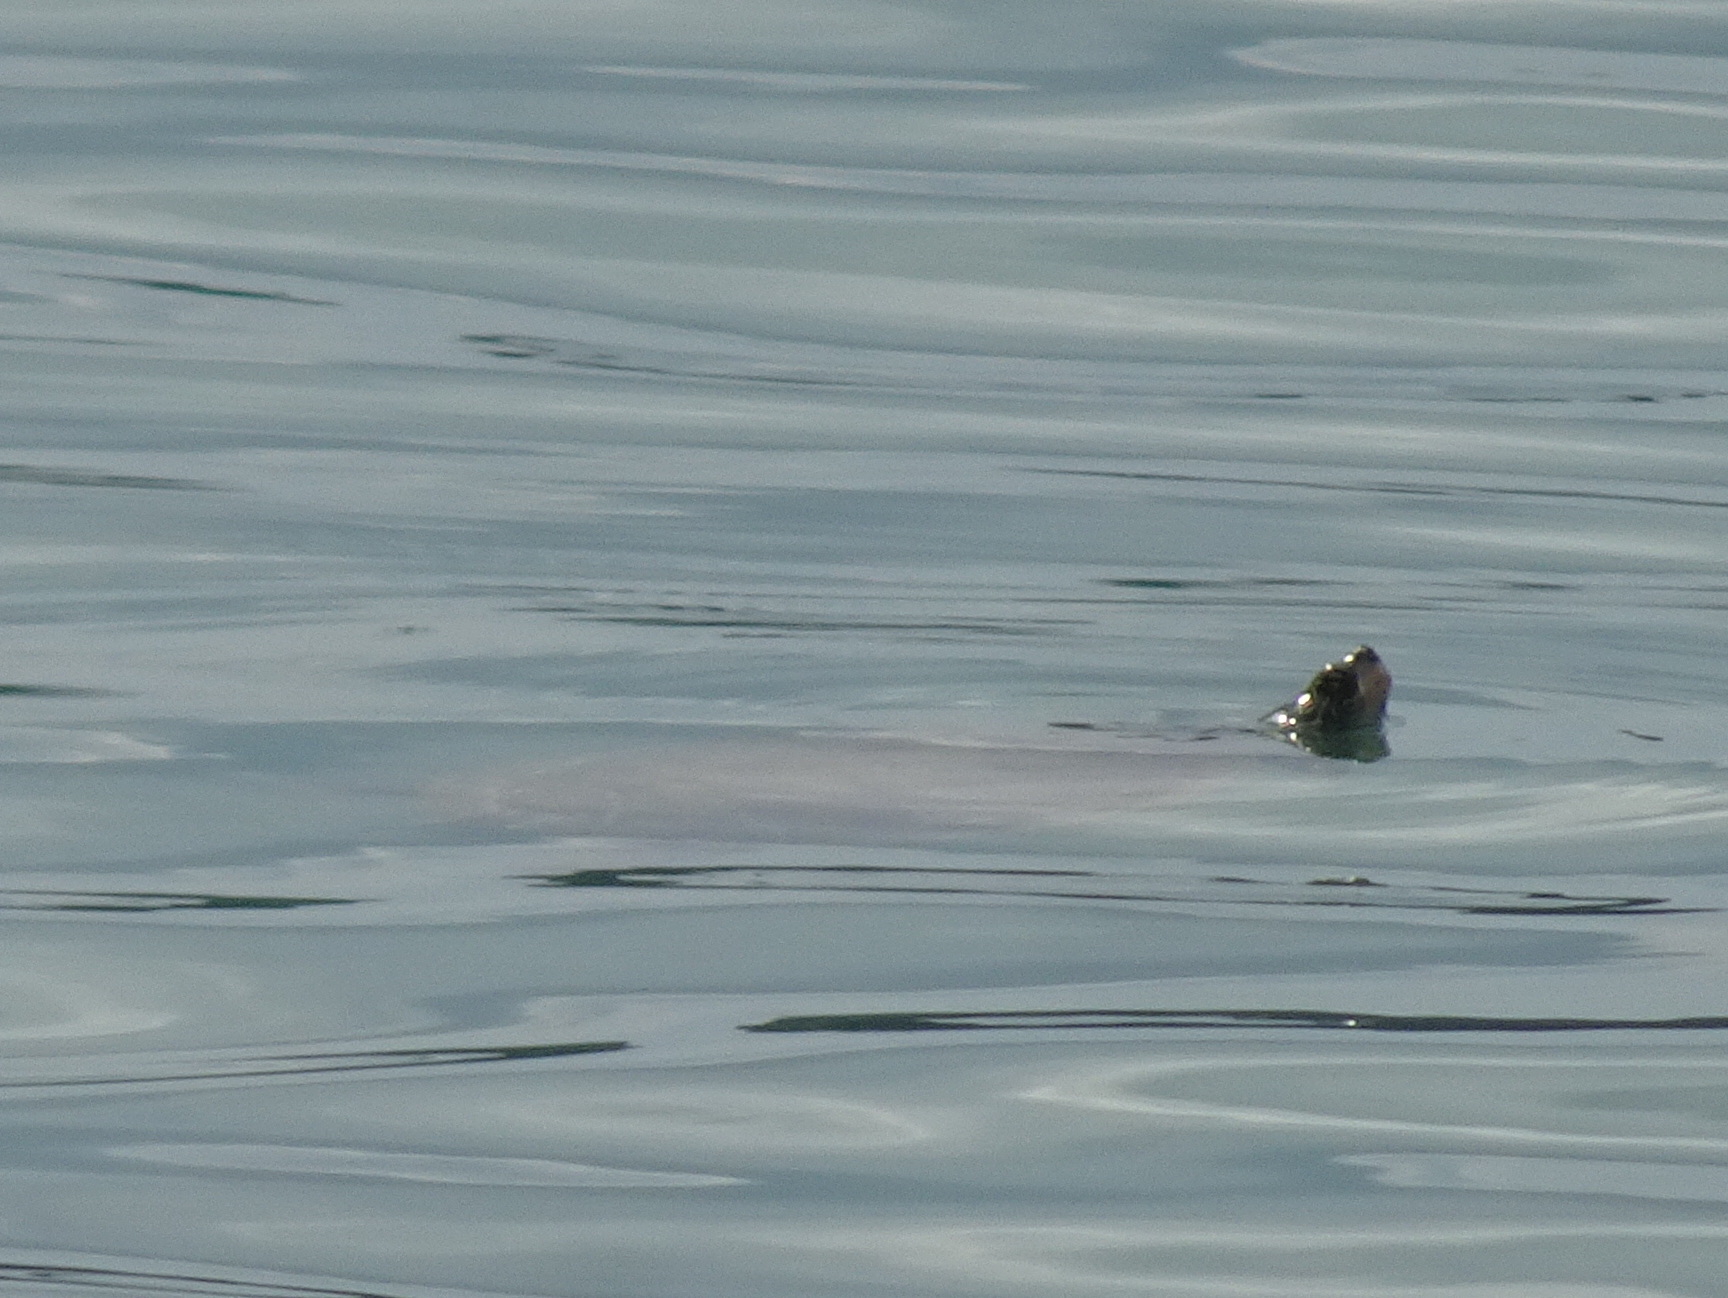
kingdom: Animalia
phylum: Chordata
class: Testudines
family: Emydidae
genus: Graptemys
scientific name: Graptemys geographica
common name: Common map turtle
